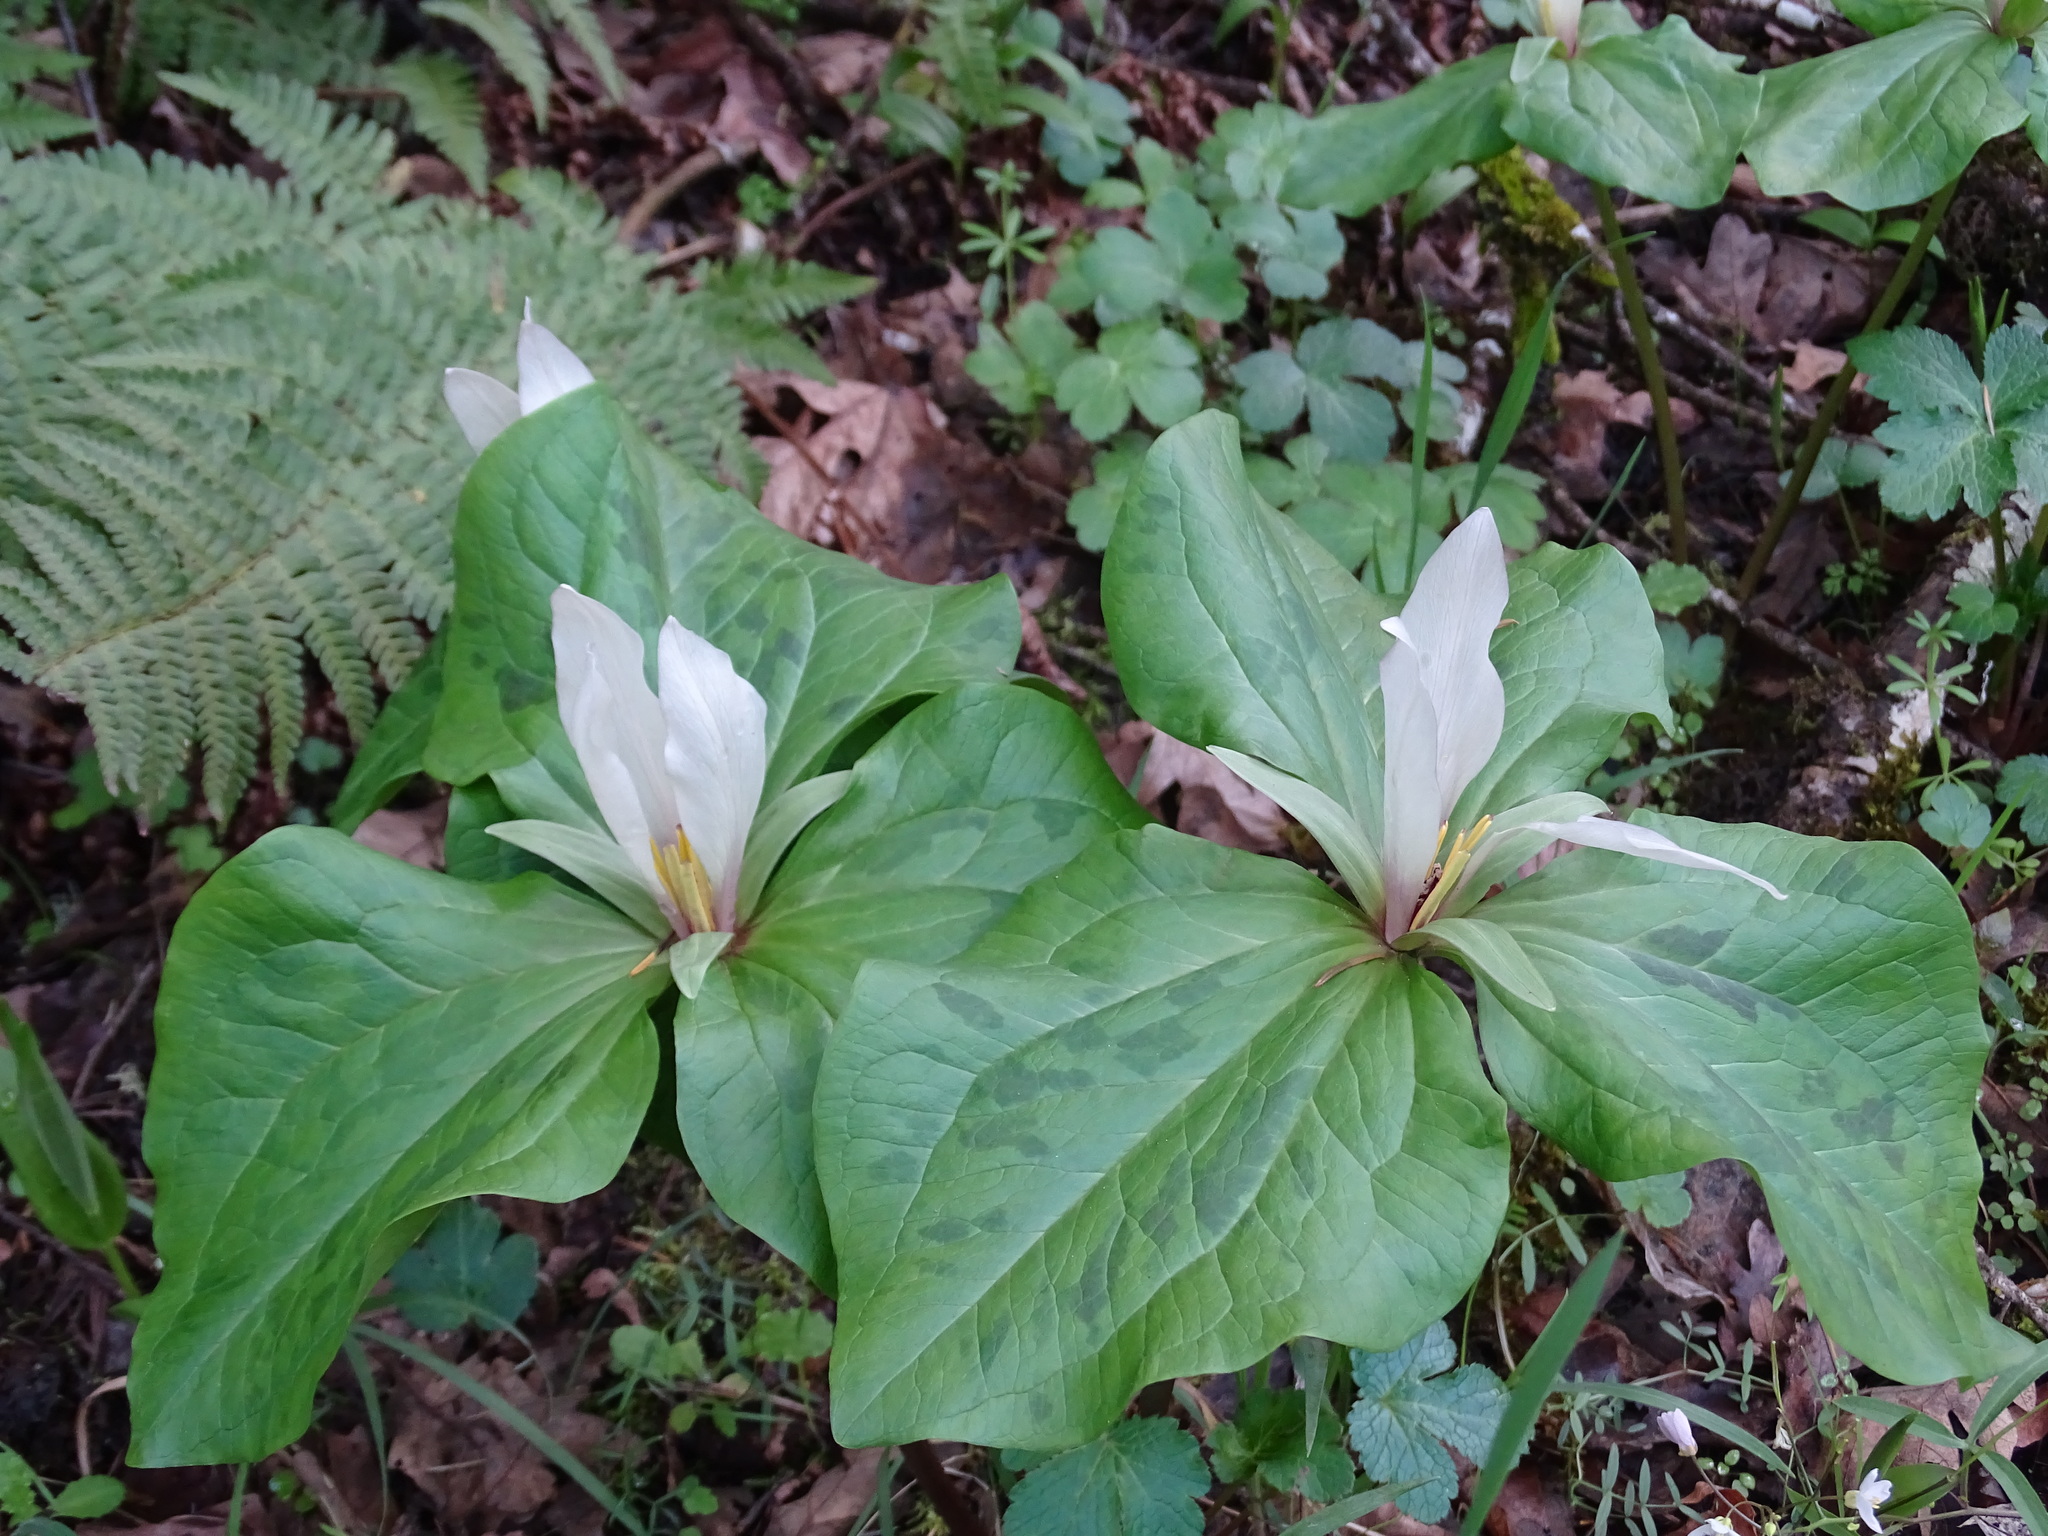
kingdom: Plantae
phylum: Tracheophyta
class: Liliopsida
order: Liliales
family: Melanthiaceae
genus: Trillium
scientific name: Trillium albidum
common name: Freeman's trillium
